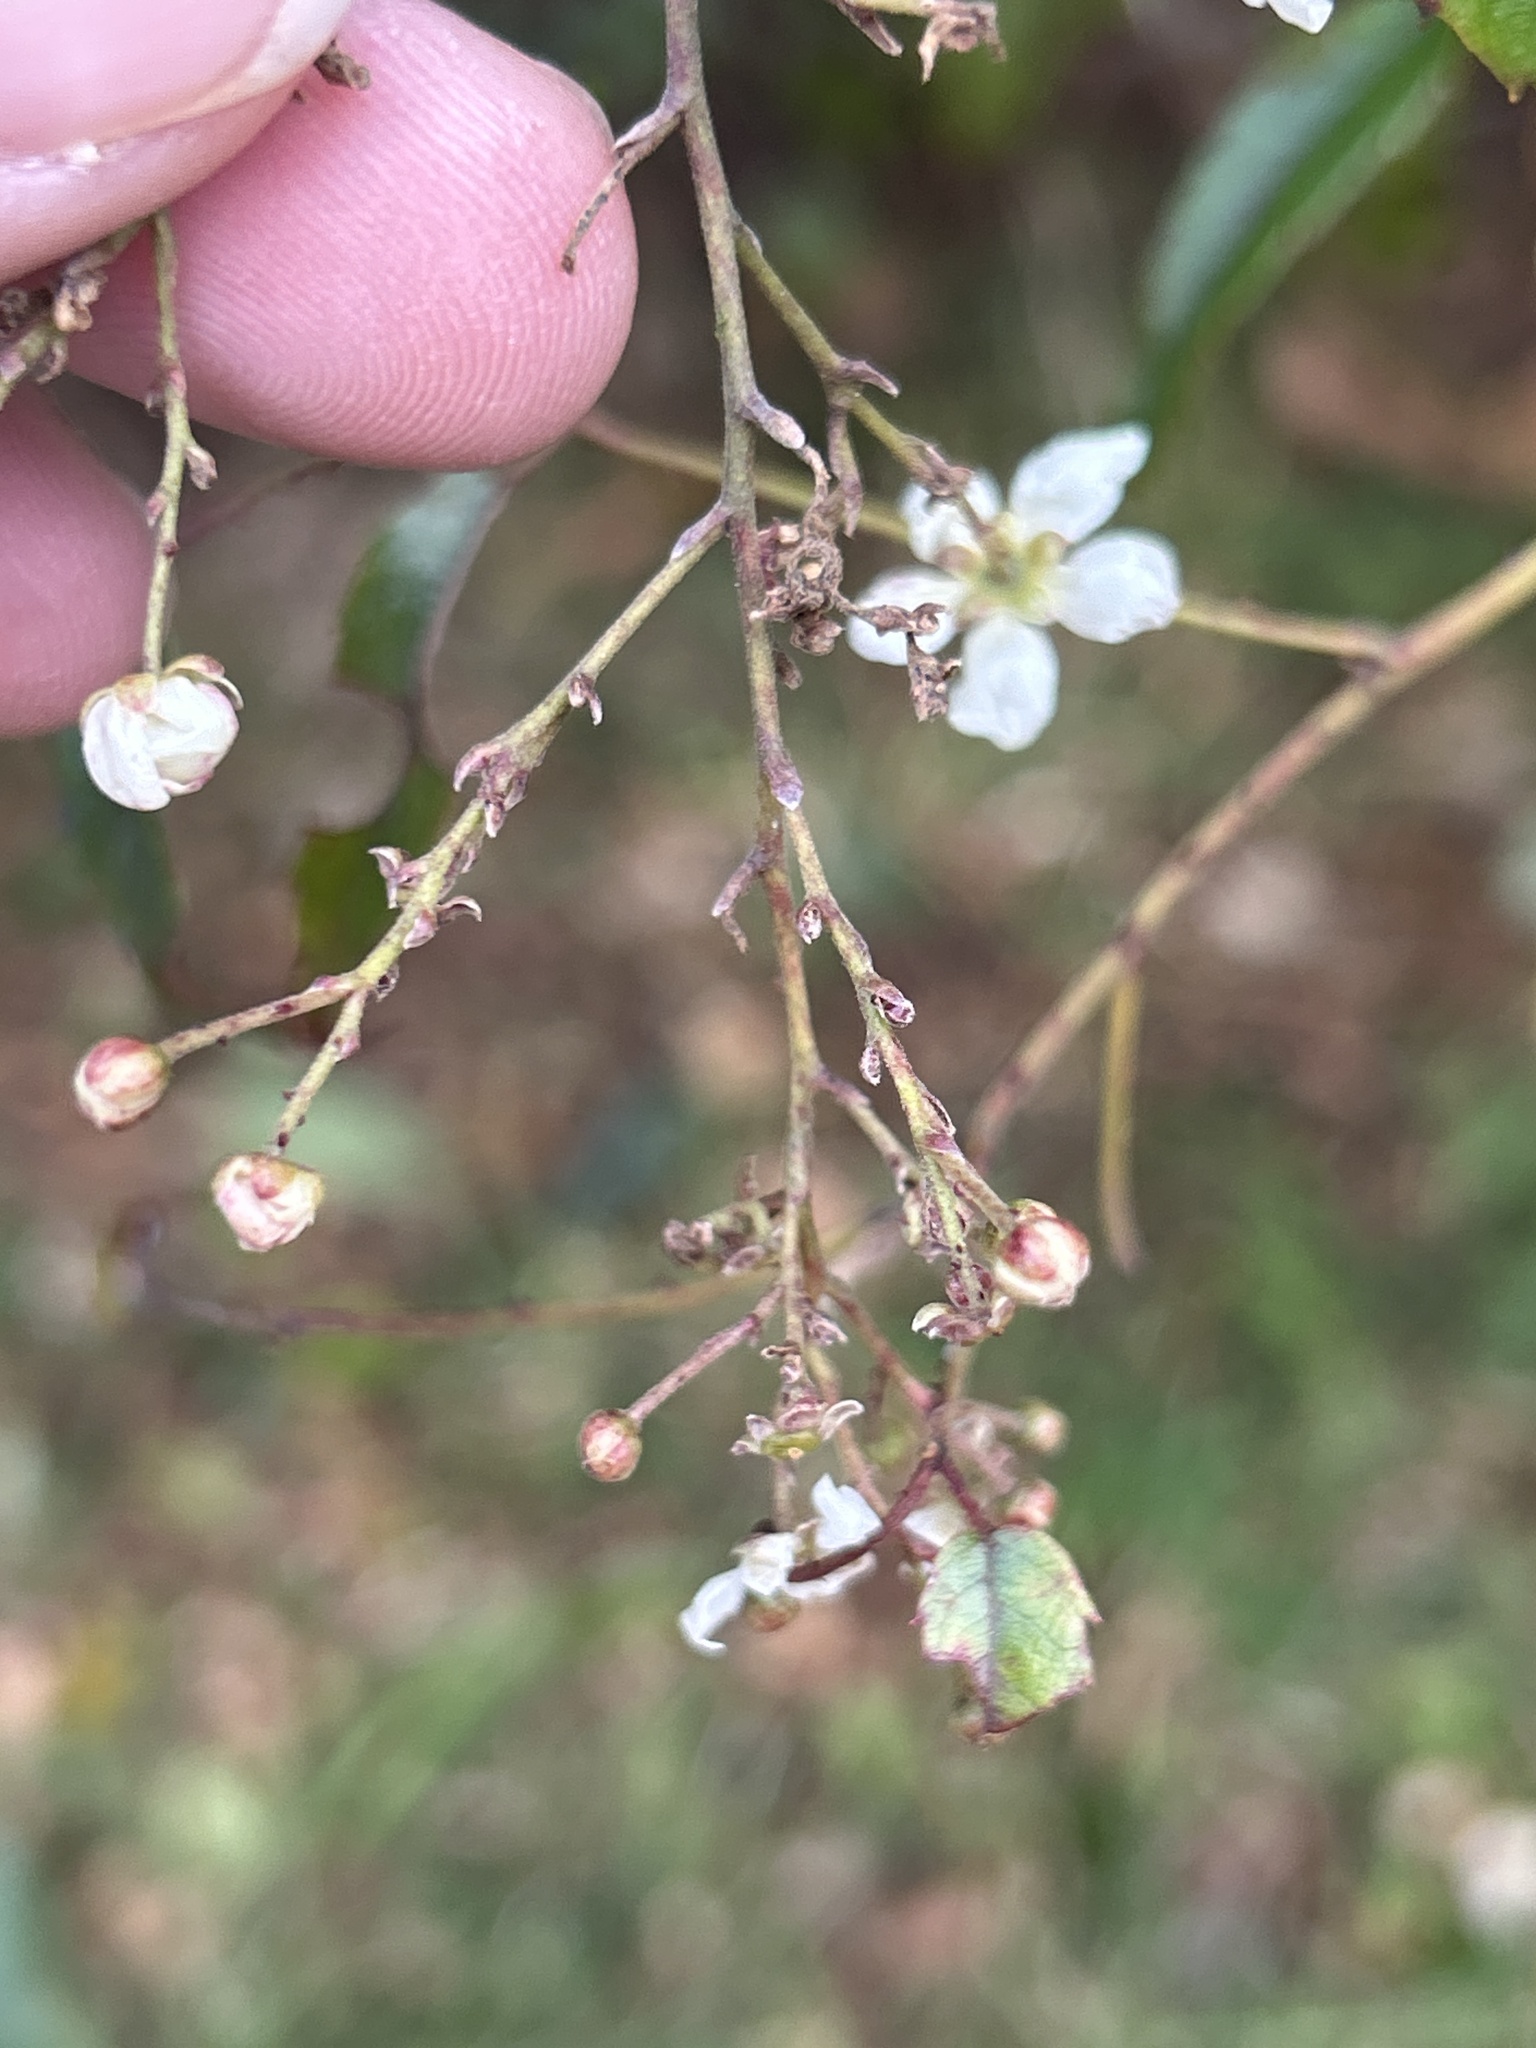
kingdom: Plantae
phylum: Tracheophyta
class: Magnoliopsida
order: Rosales
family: Rosaceae
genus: Rubus
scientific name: Rubus cissoides
